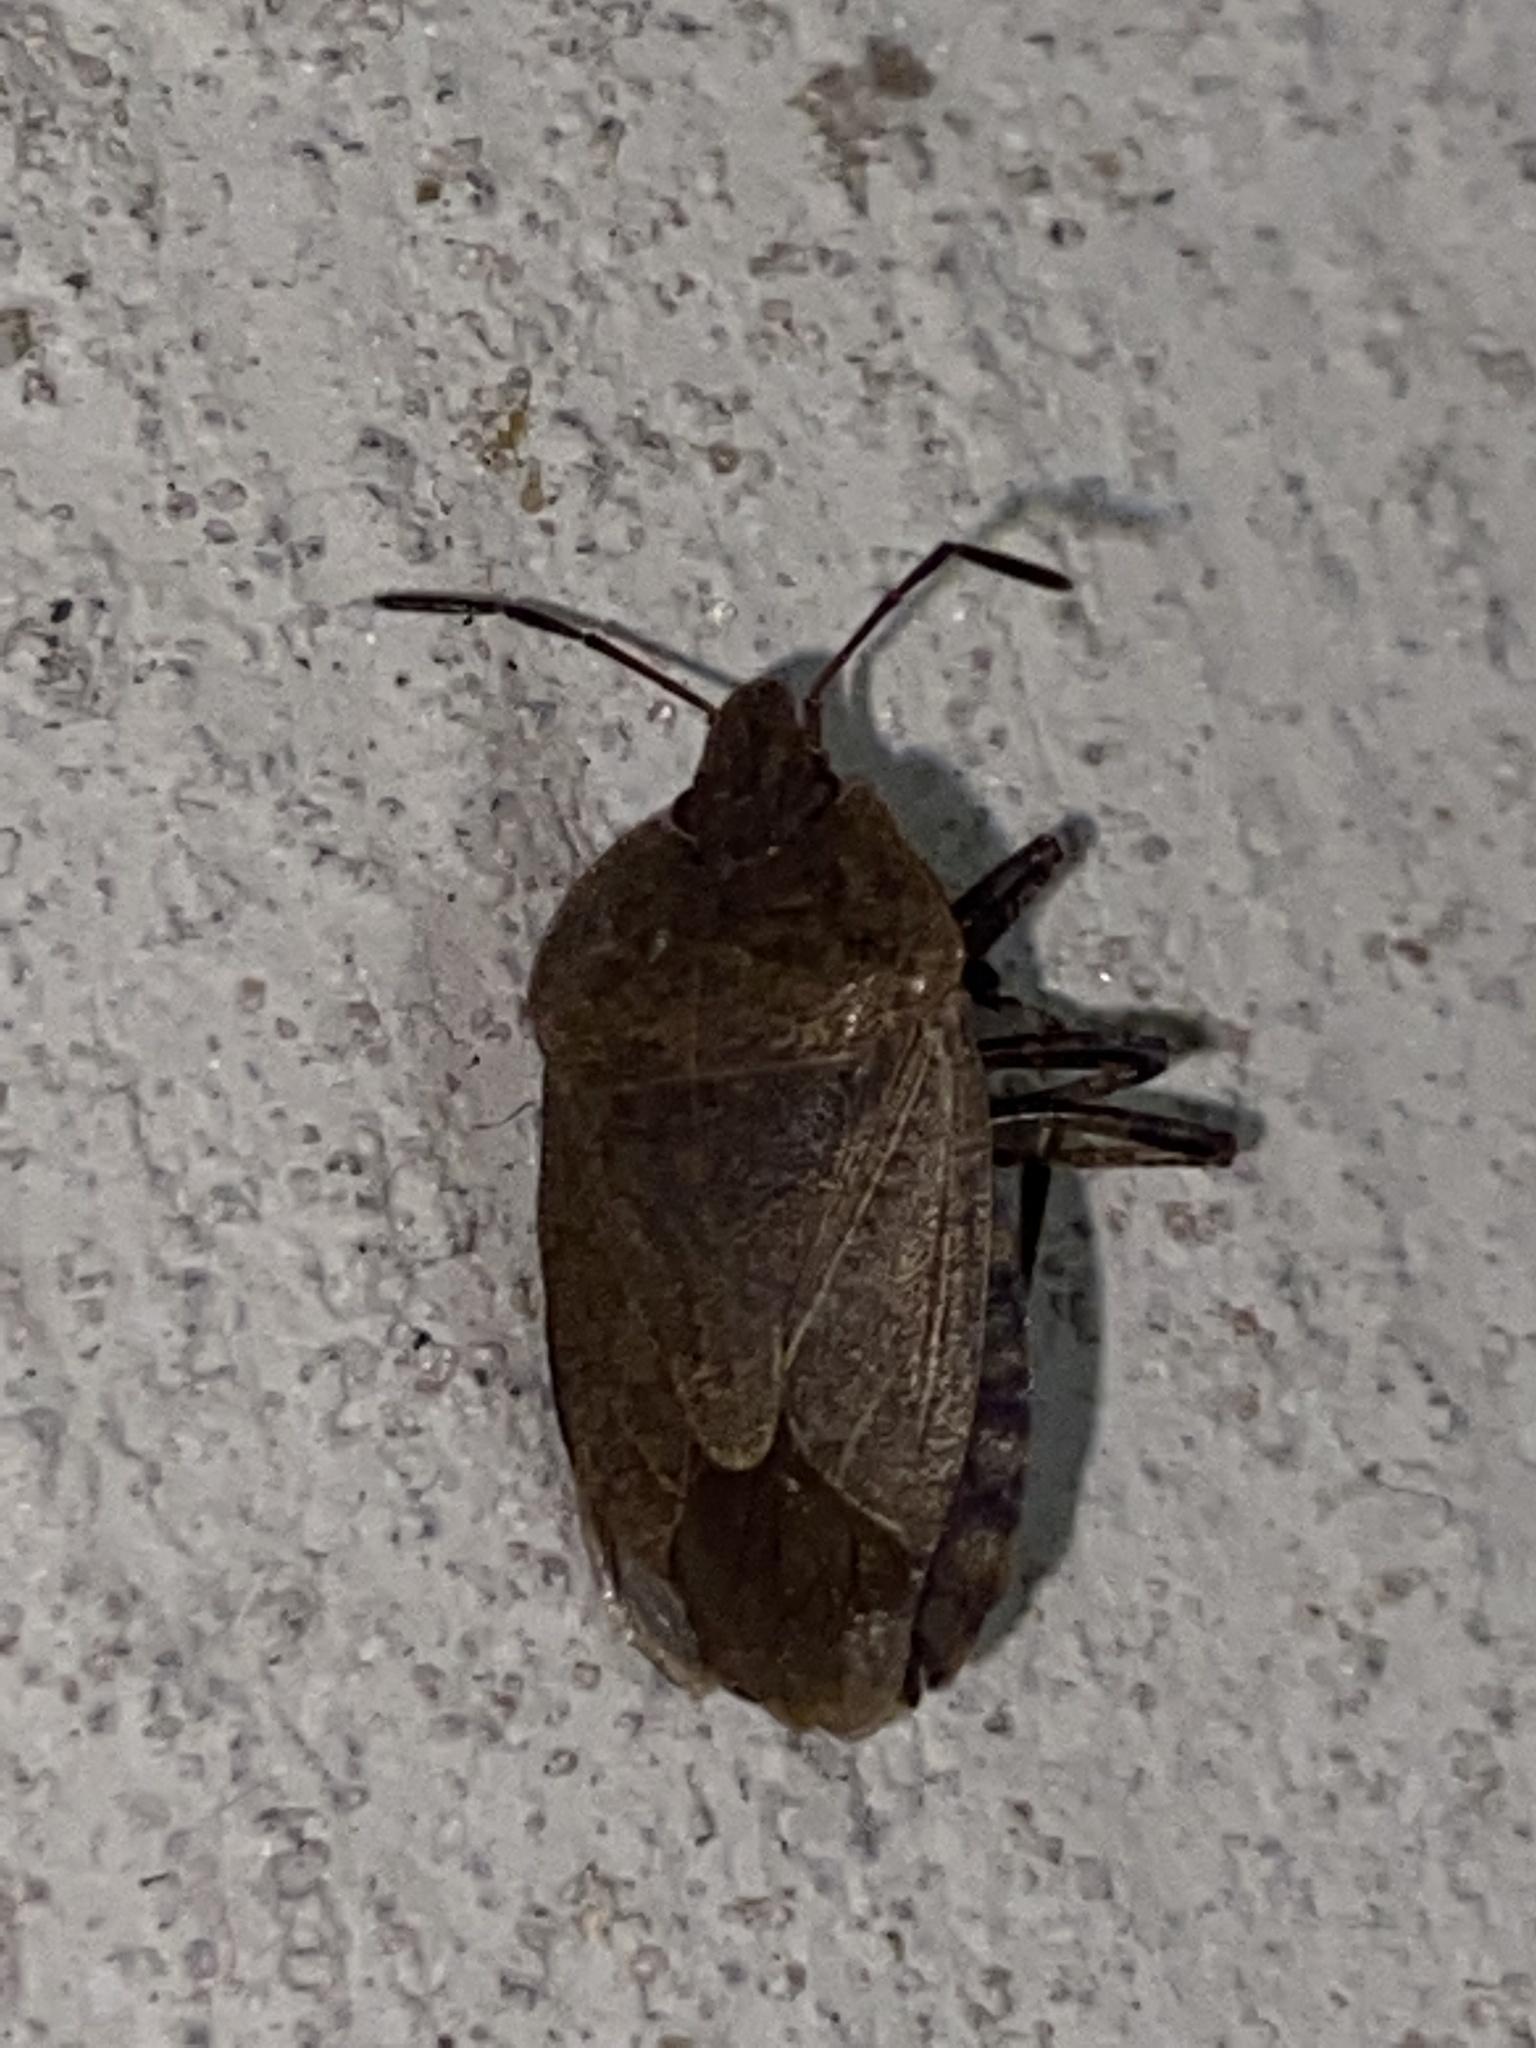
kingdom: Animalia
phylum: Arthropoda
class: Insecta
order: Hemiptera
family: Pentatomidae
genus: Menecles
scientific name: Menecles insertus
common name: Elf shoe stink bug
